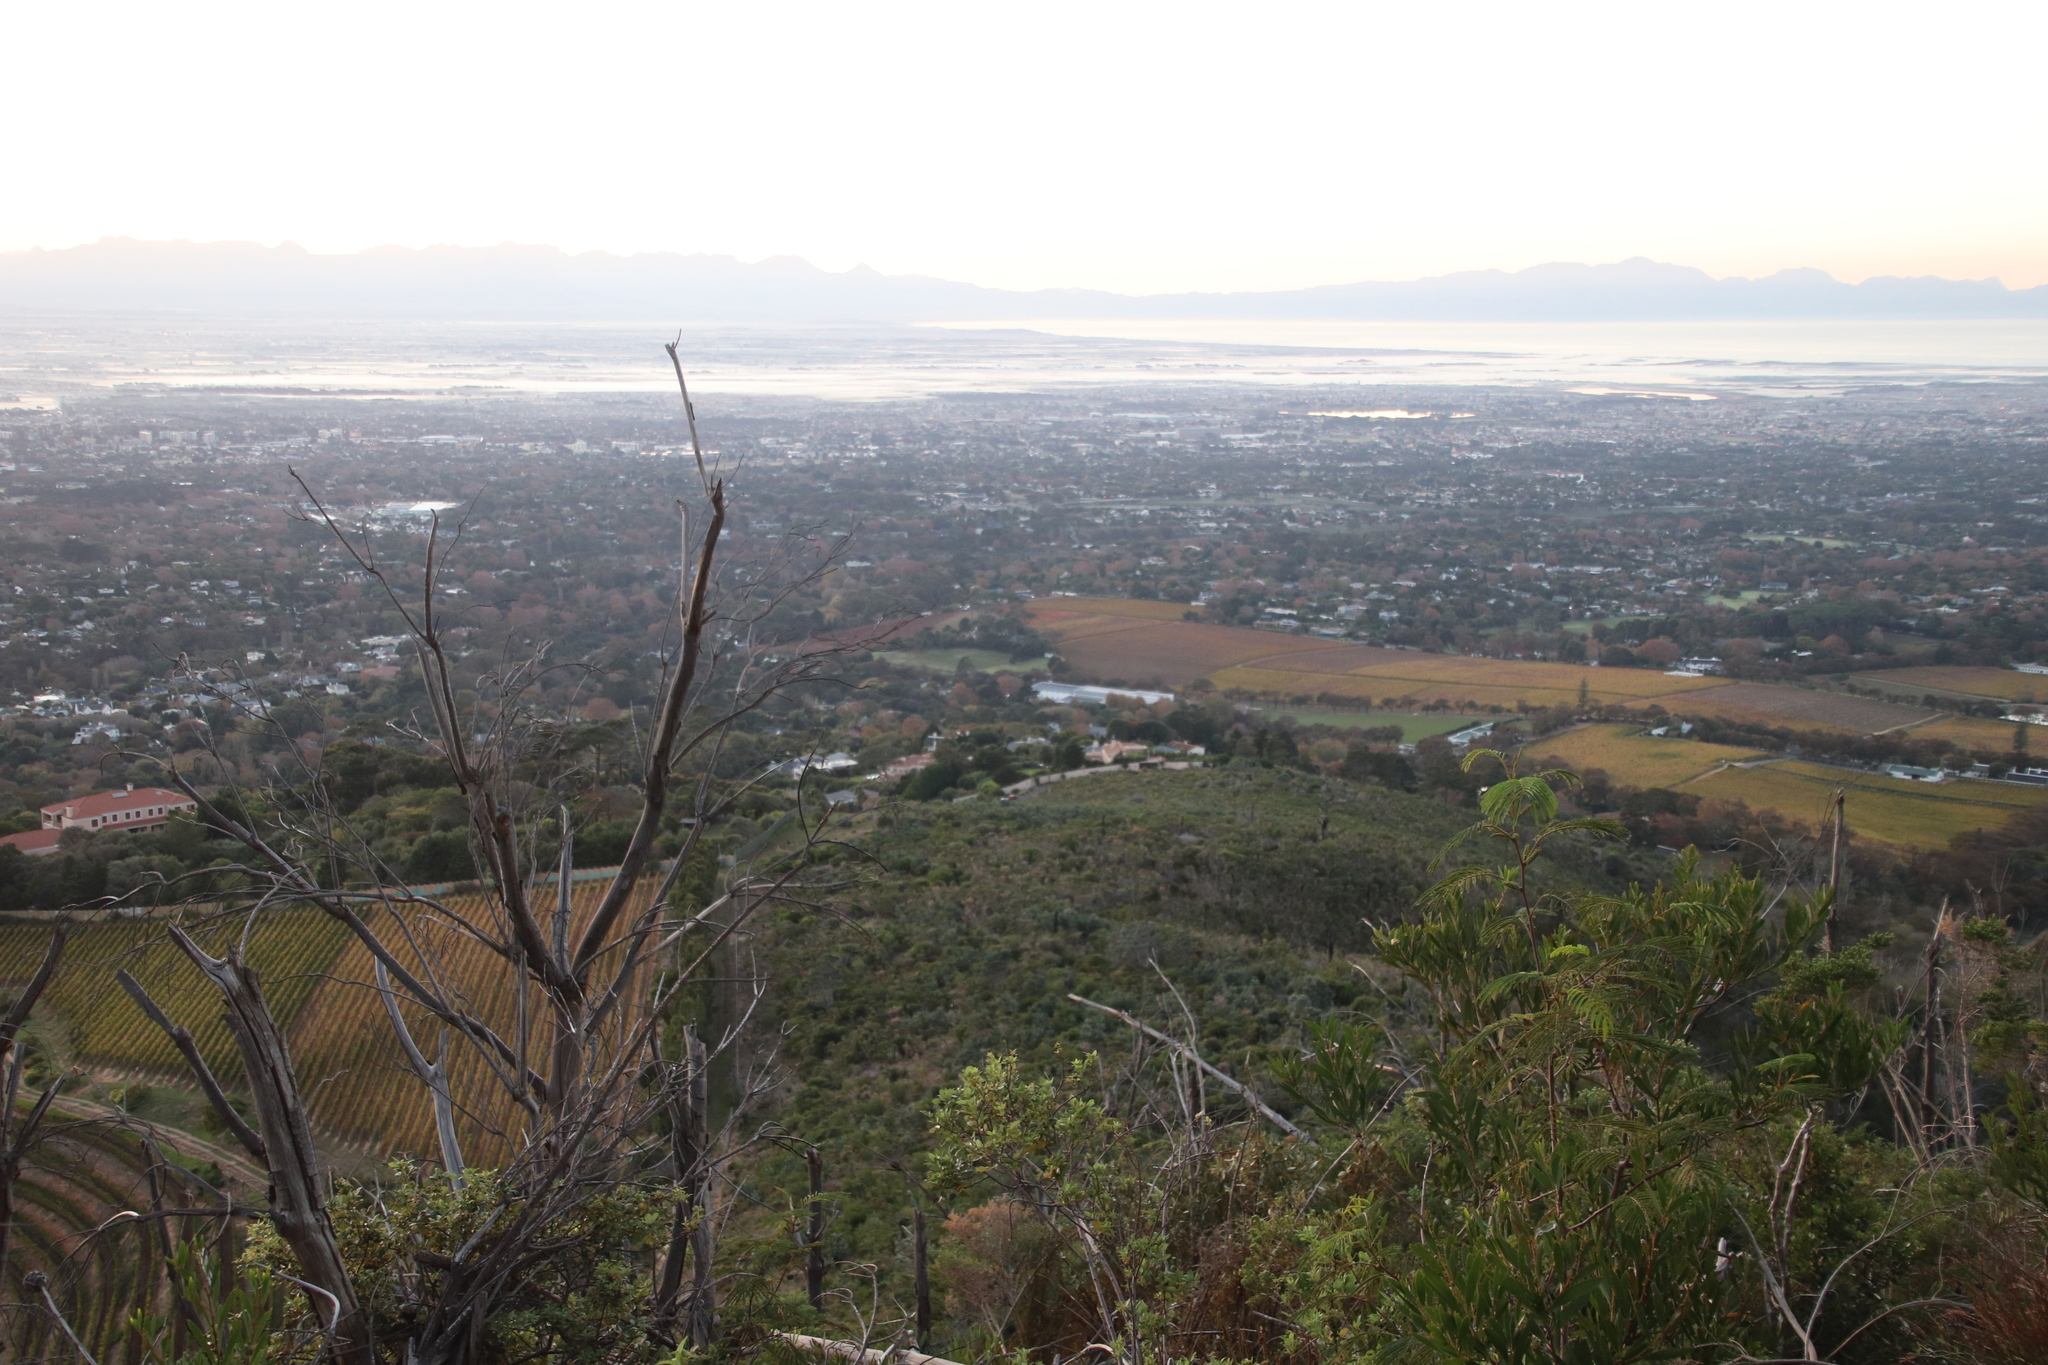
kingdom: Plantae
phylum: Tracheophyta
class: Magnoliopsida
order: Fabales
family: Fabaceae
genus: Paraserianthes
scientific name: Paraserianthes lophantha
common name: Plume albizia
